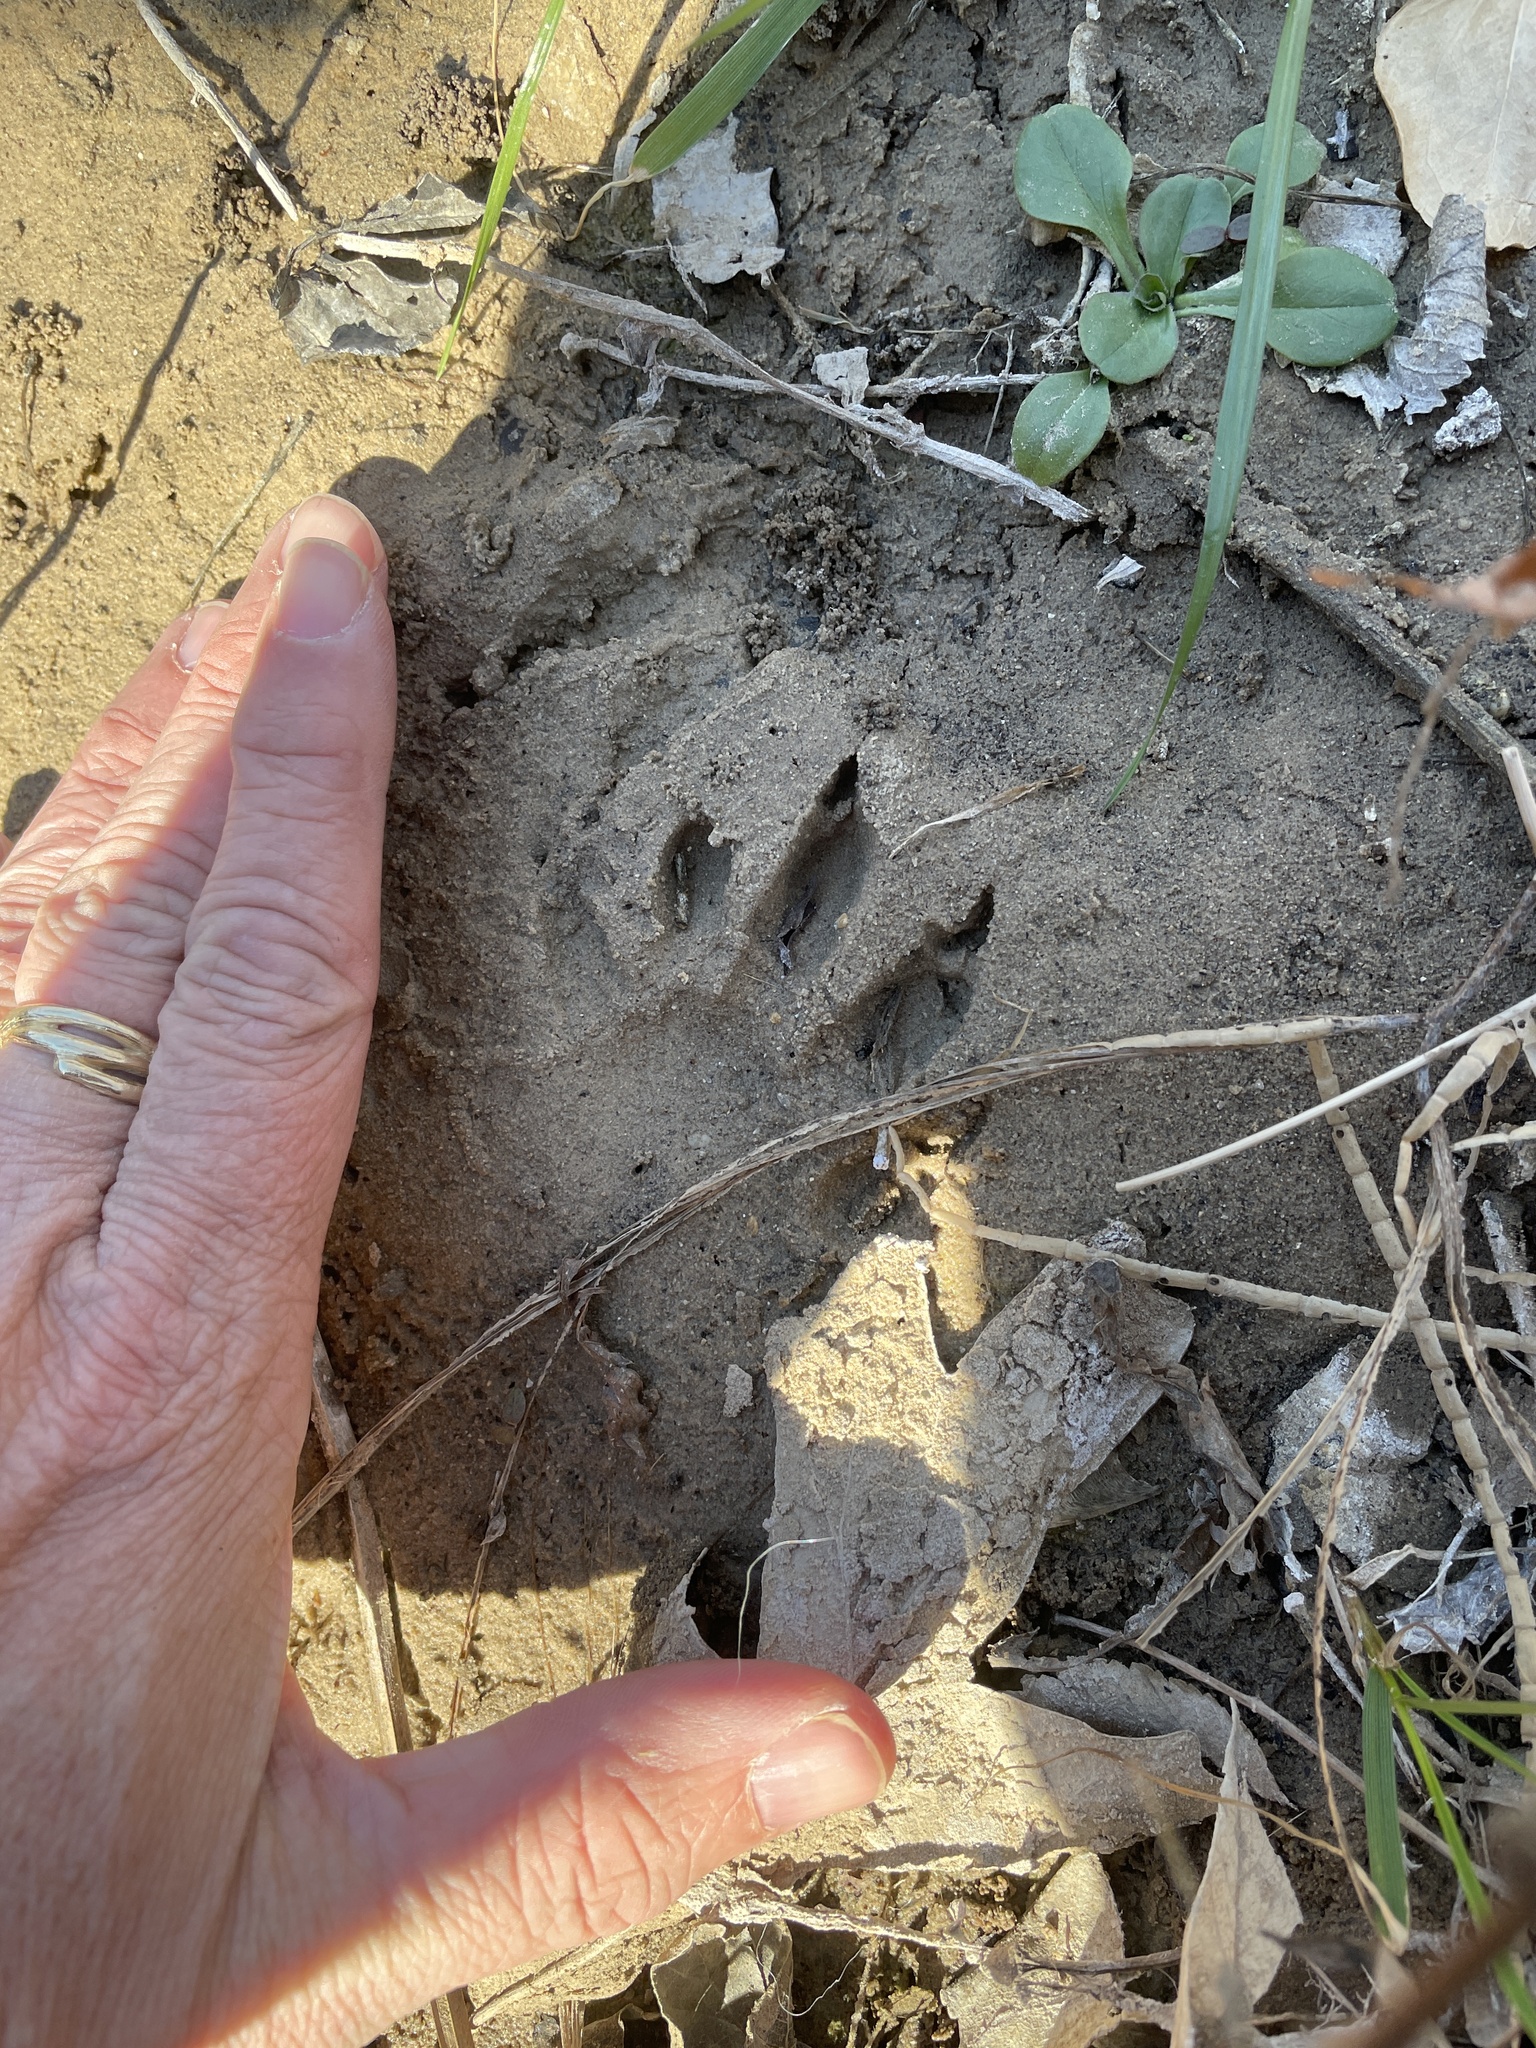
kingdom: Animalia
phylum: Chordata
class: Mammalia
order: Carnivora
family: Procyonidae
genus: Procyon
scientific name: Procyon lotor
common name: Raccoon
